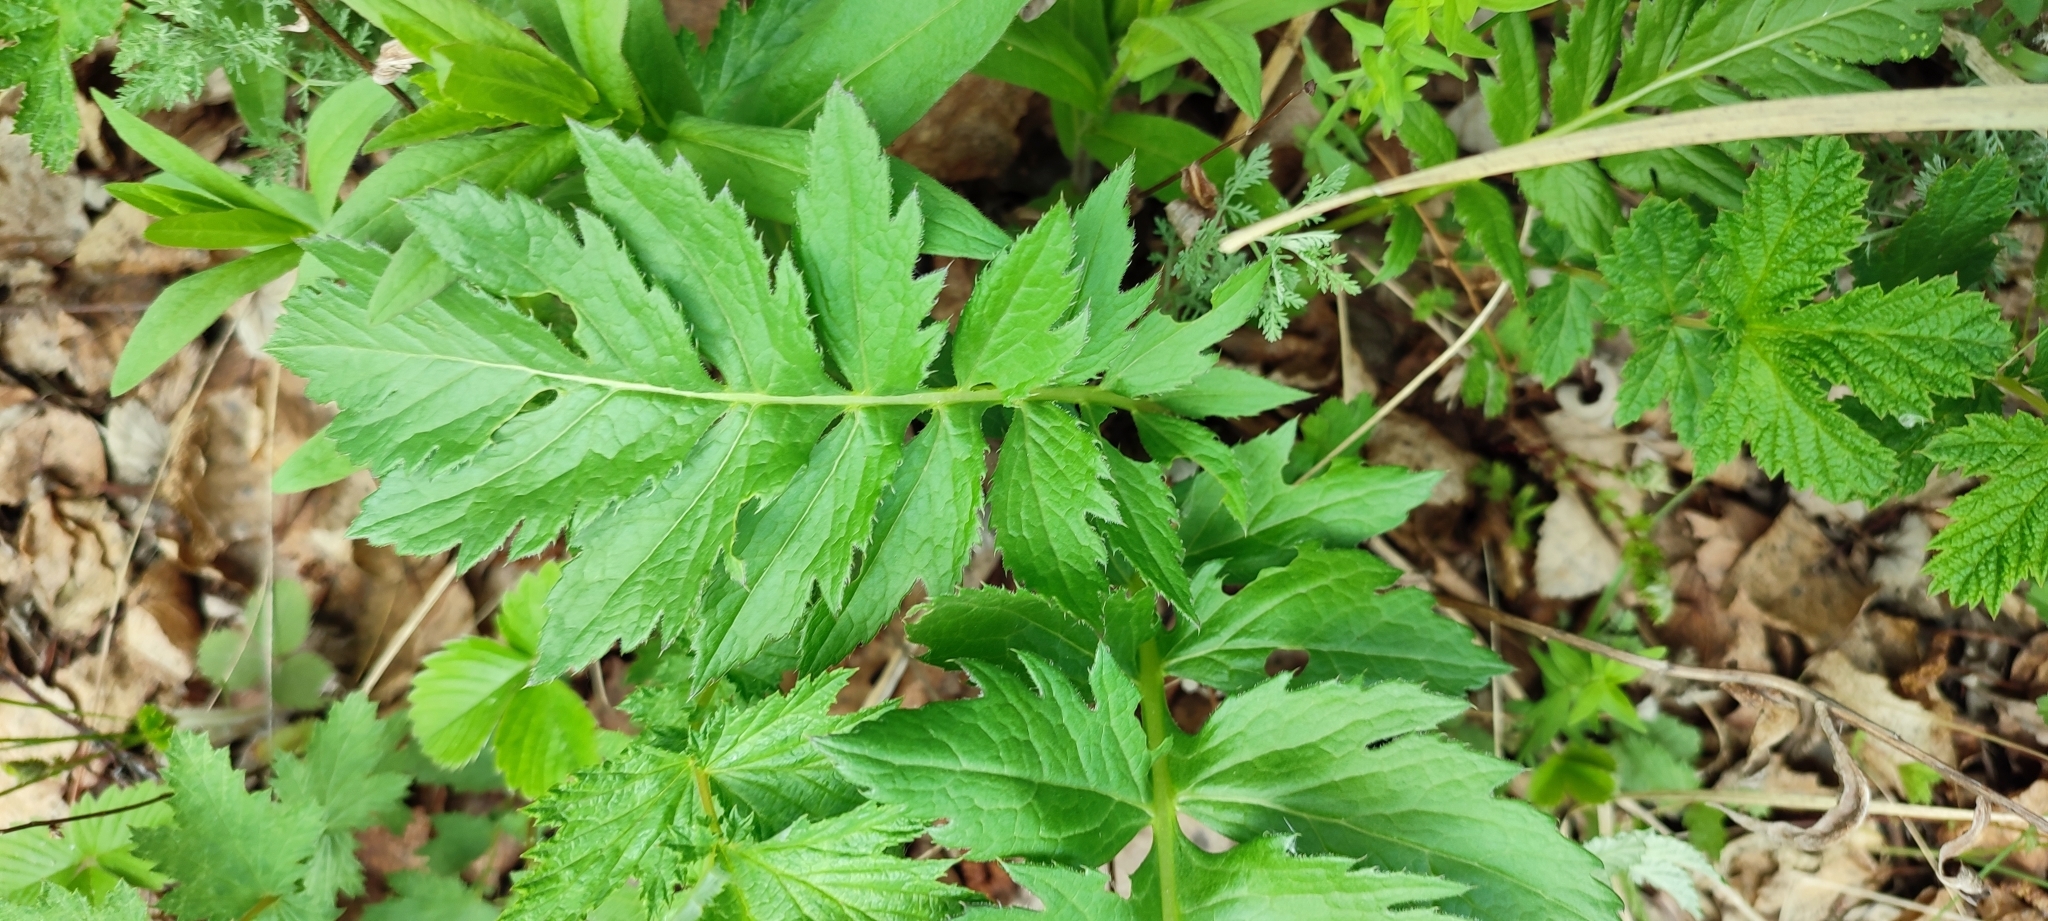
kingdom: Plantae
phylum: Tracheophyta
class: Magnoliopsida
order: Asterales
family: Asteraceae
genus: Serratula
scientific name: Serratula coronata
